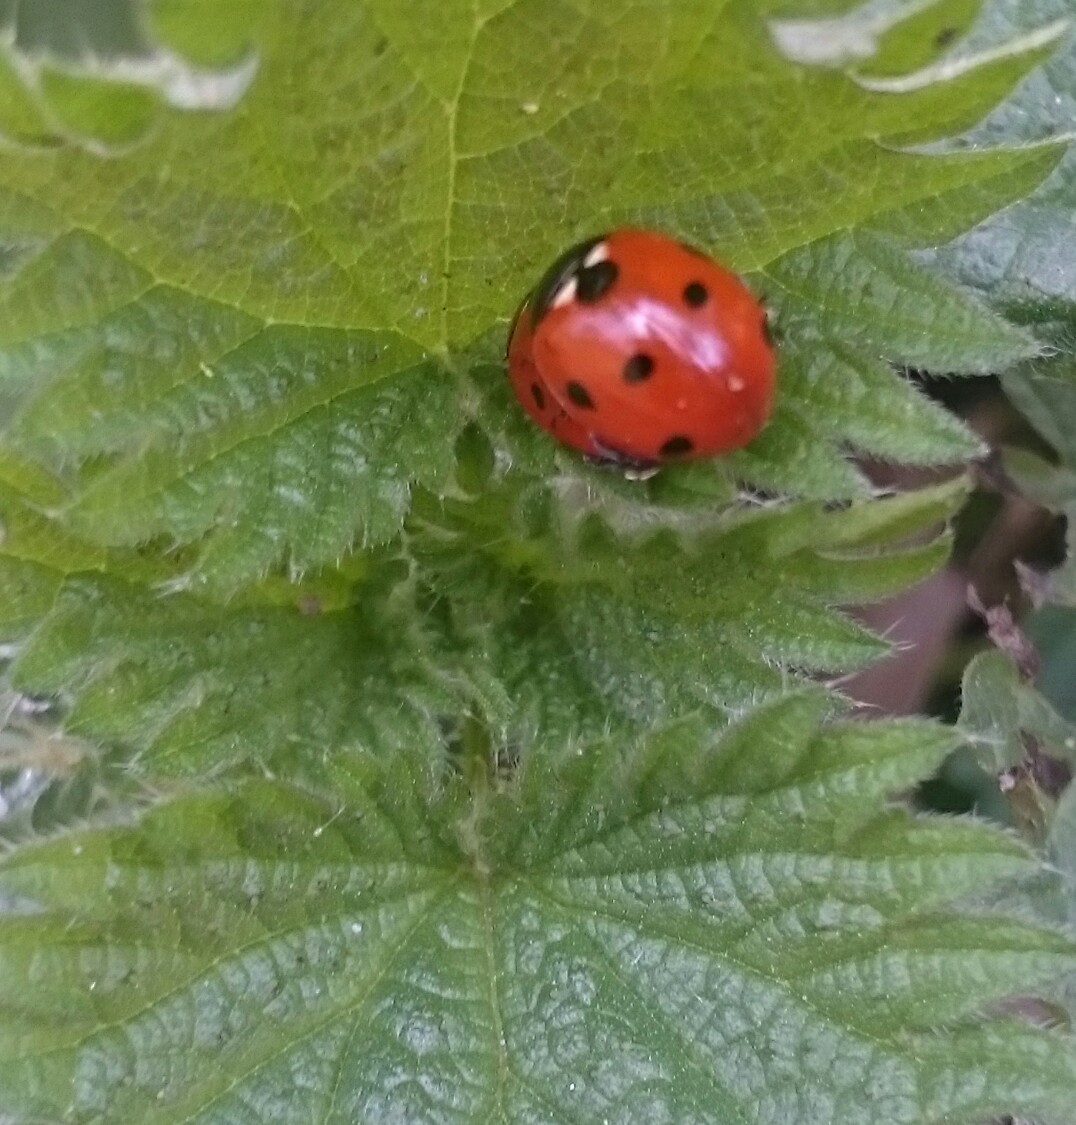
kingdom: Animalia
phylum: Arthropoda
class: Insecta
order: Coleoptera
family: Coccinellidae
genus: Coccinella
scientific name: Coccinella septempunctata
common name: Sevenspotted lady beetle
